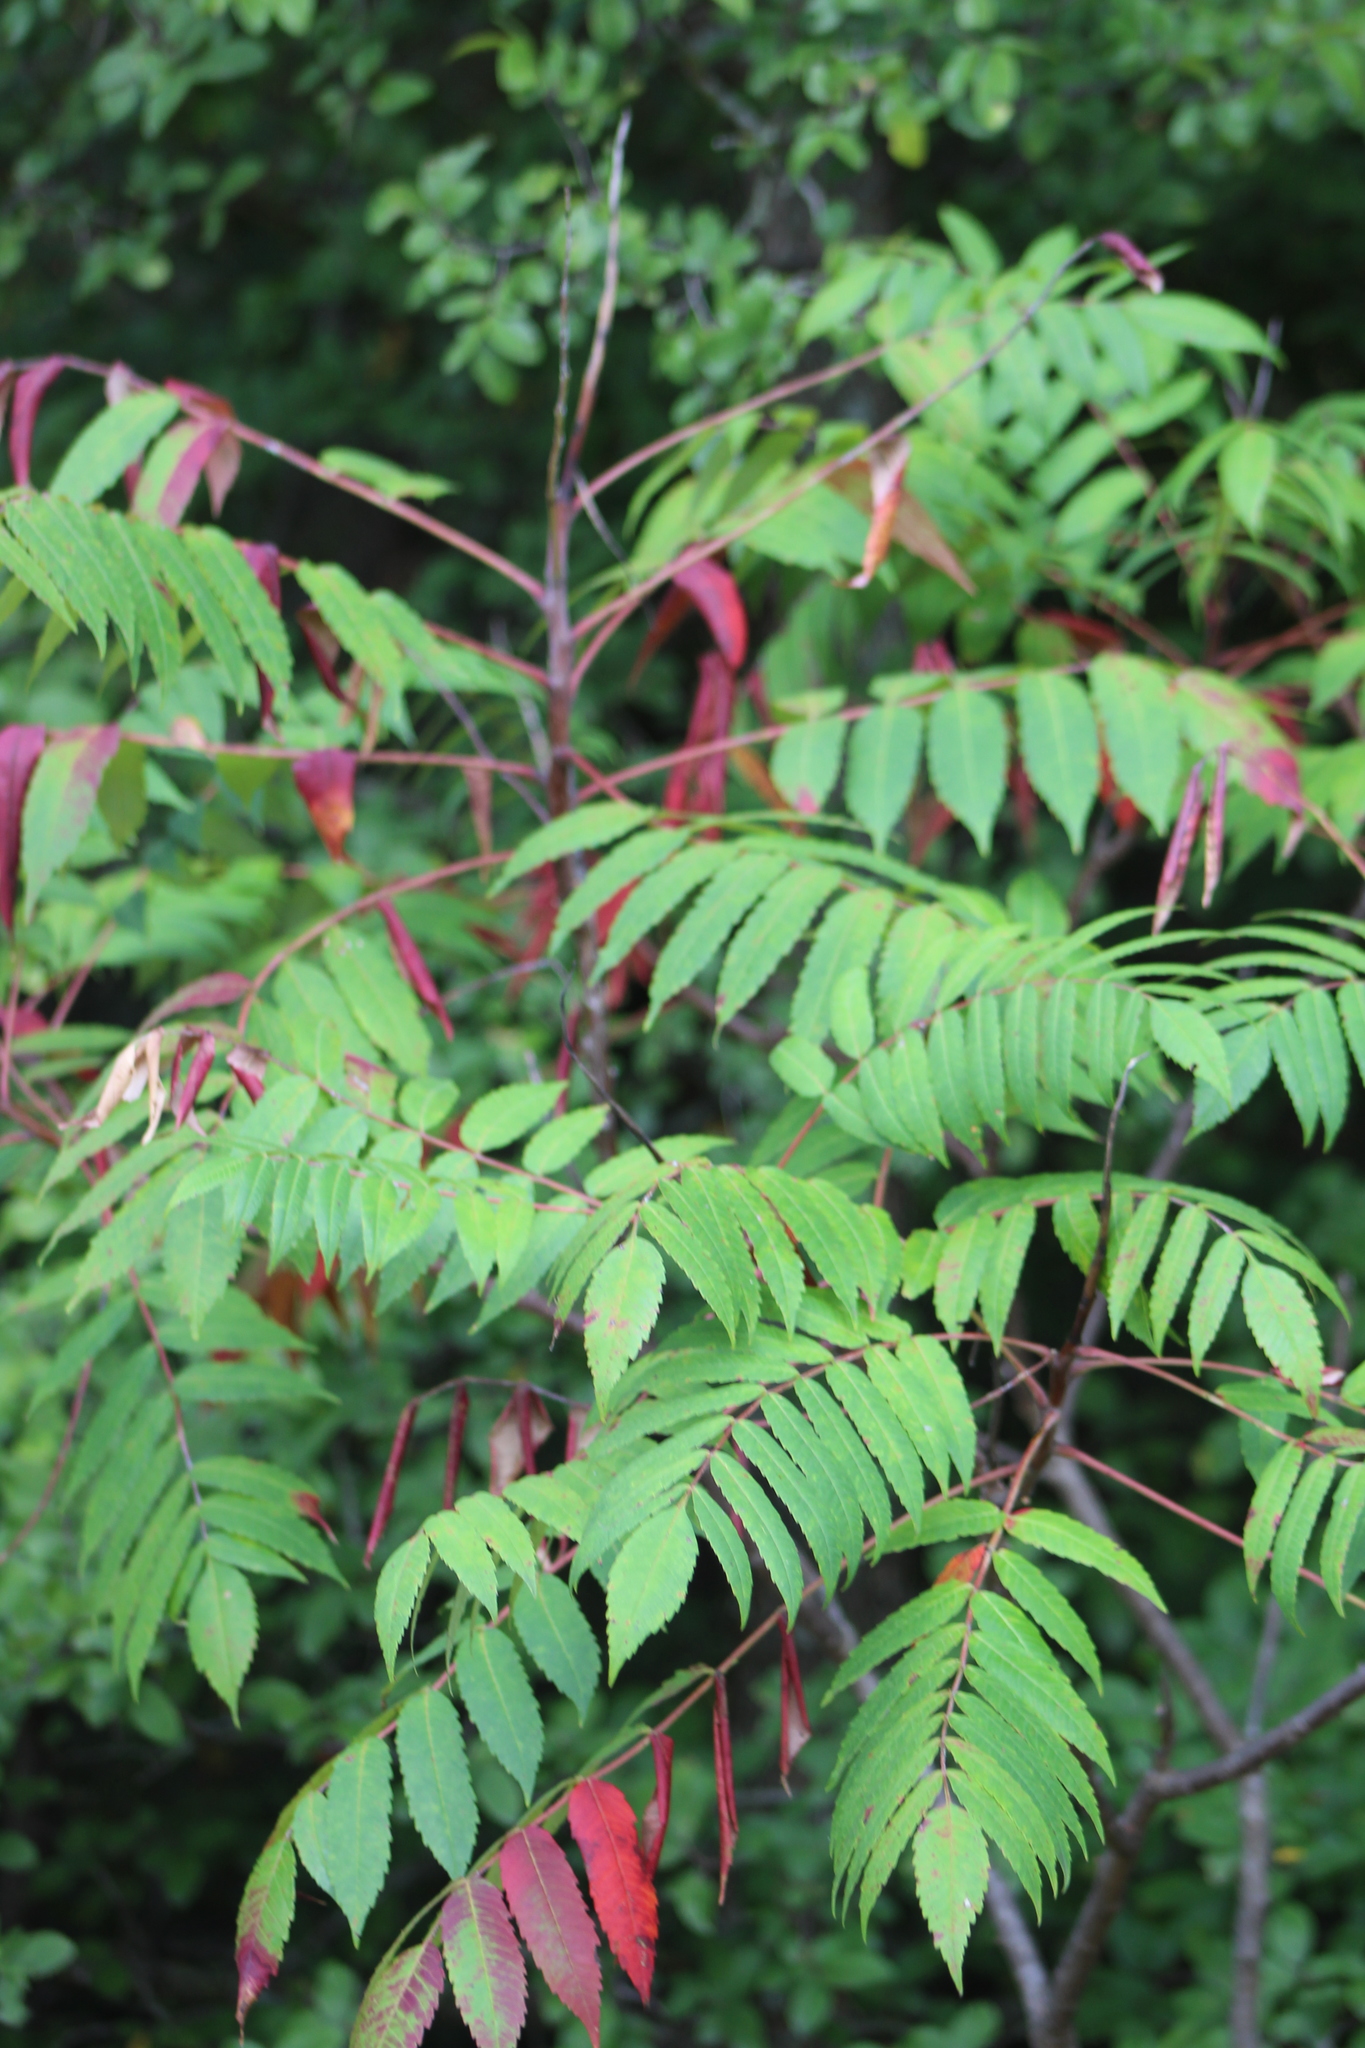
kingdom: Plantae
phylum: Tracheophyta
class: Magnoliopsida
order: Sapindales
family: Anacardiaceae
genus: Rhus
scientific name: Rhus glabra
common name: Scarlet sumac
